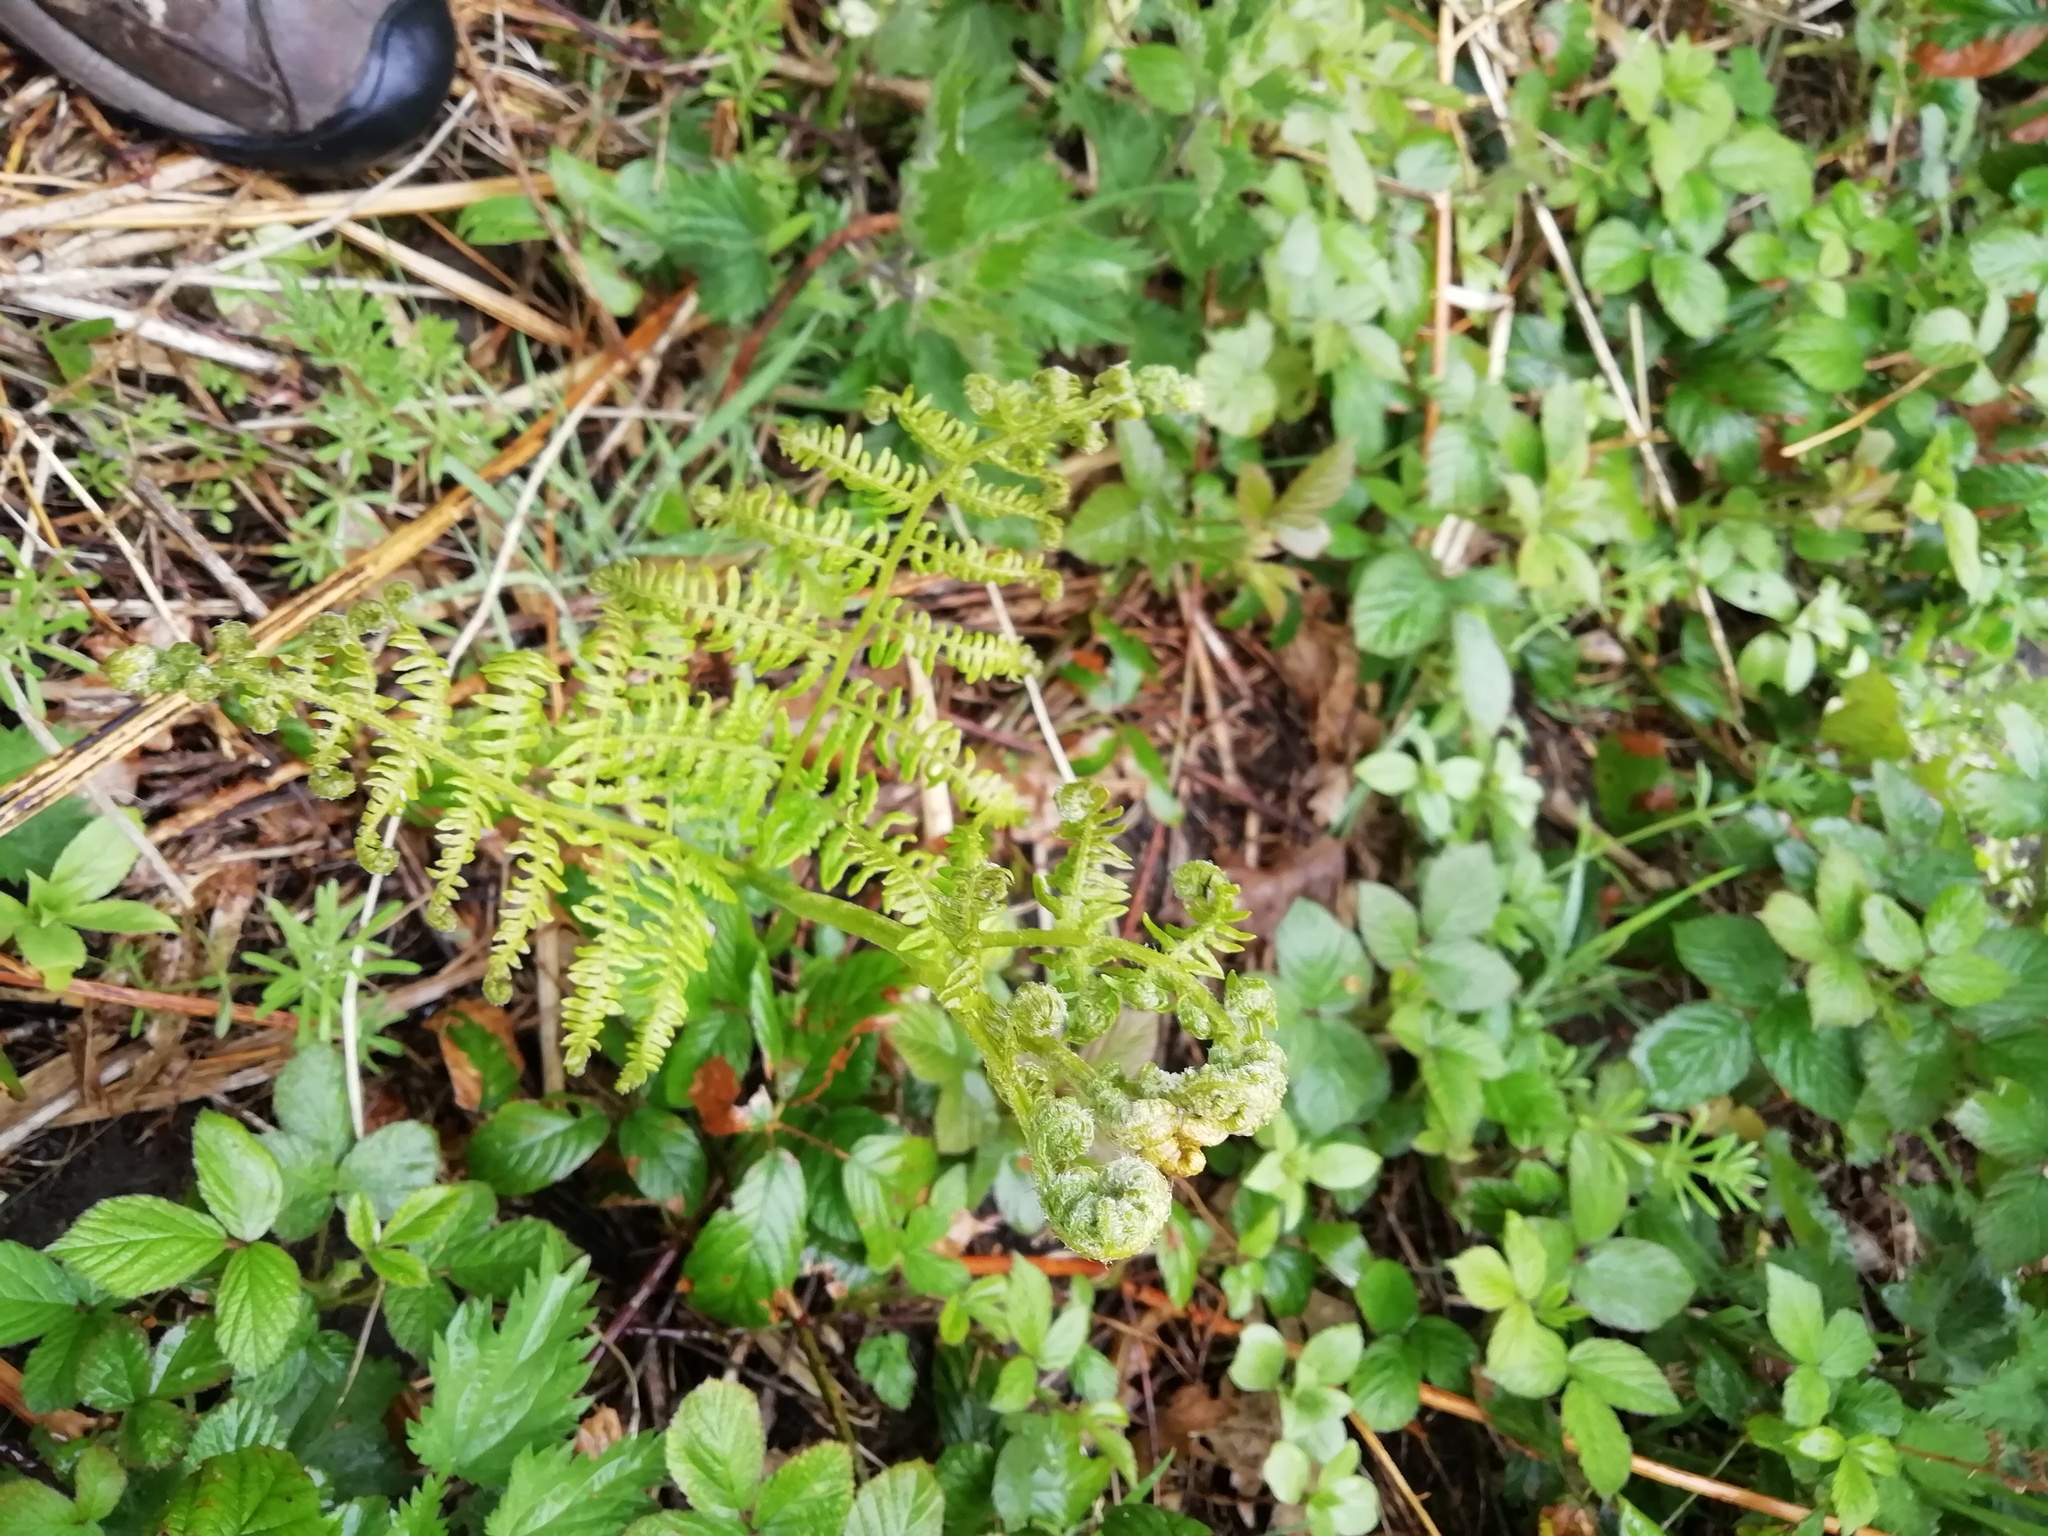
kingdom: Plantae
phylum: Tracheophyta
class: Polypodiopsida
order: Polypodiales
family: Dennstaedtiaceae
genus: Pteridium
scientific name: Pteridium aquilinum
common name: Bracken
